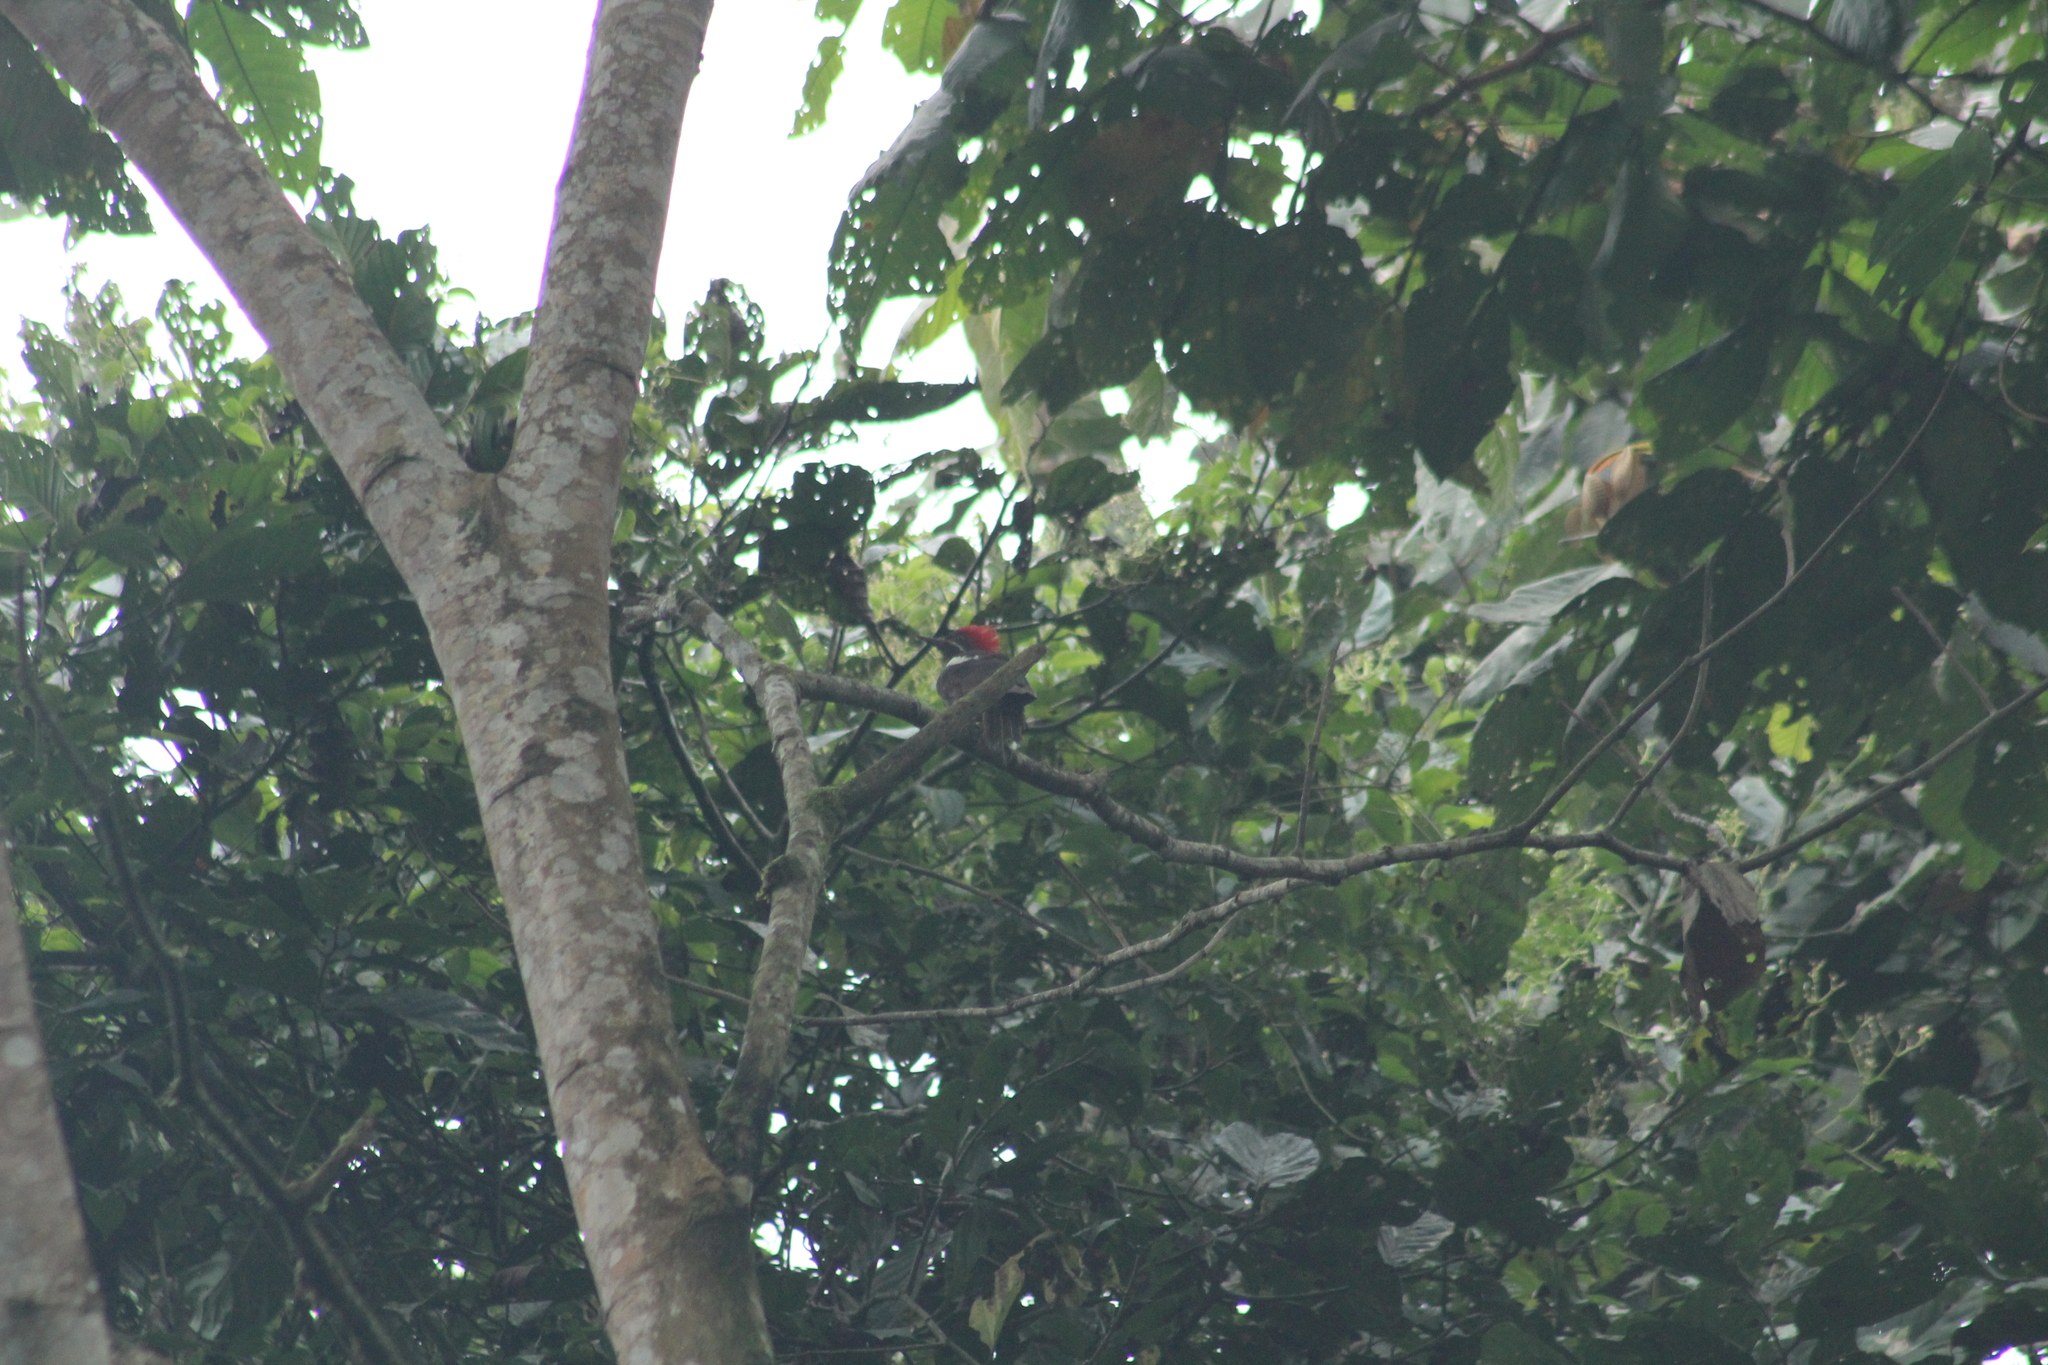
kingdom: Animalia
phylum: Chordata
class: Aves
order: Piciformes
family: Picidae
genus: Dryocopus
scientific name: Dryocopus lineatus
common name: Lineated woodpecker
